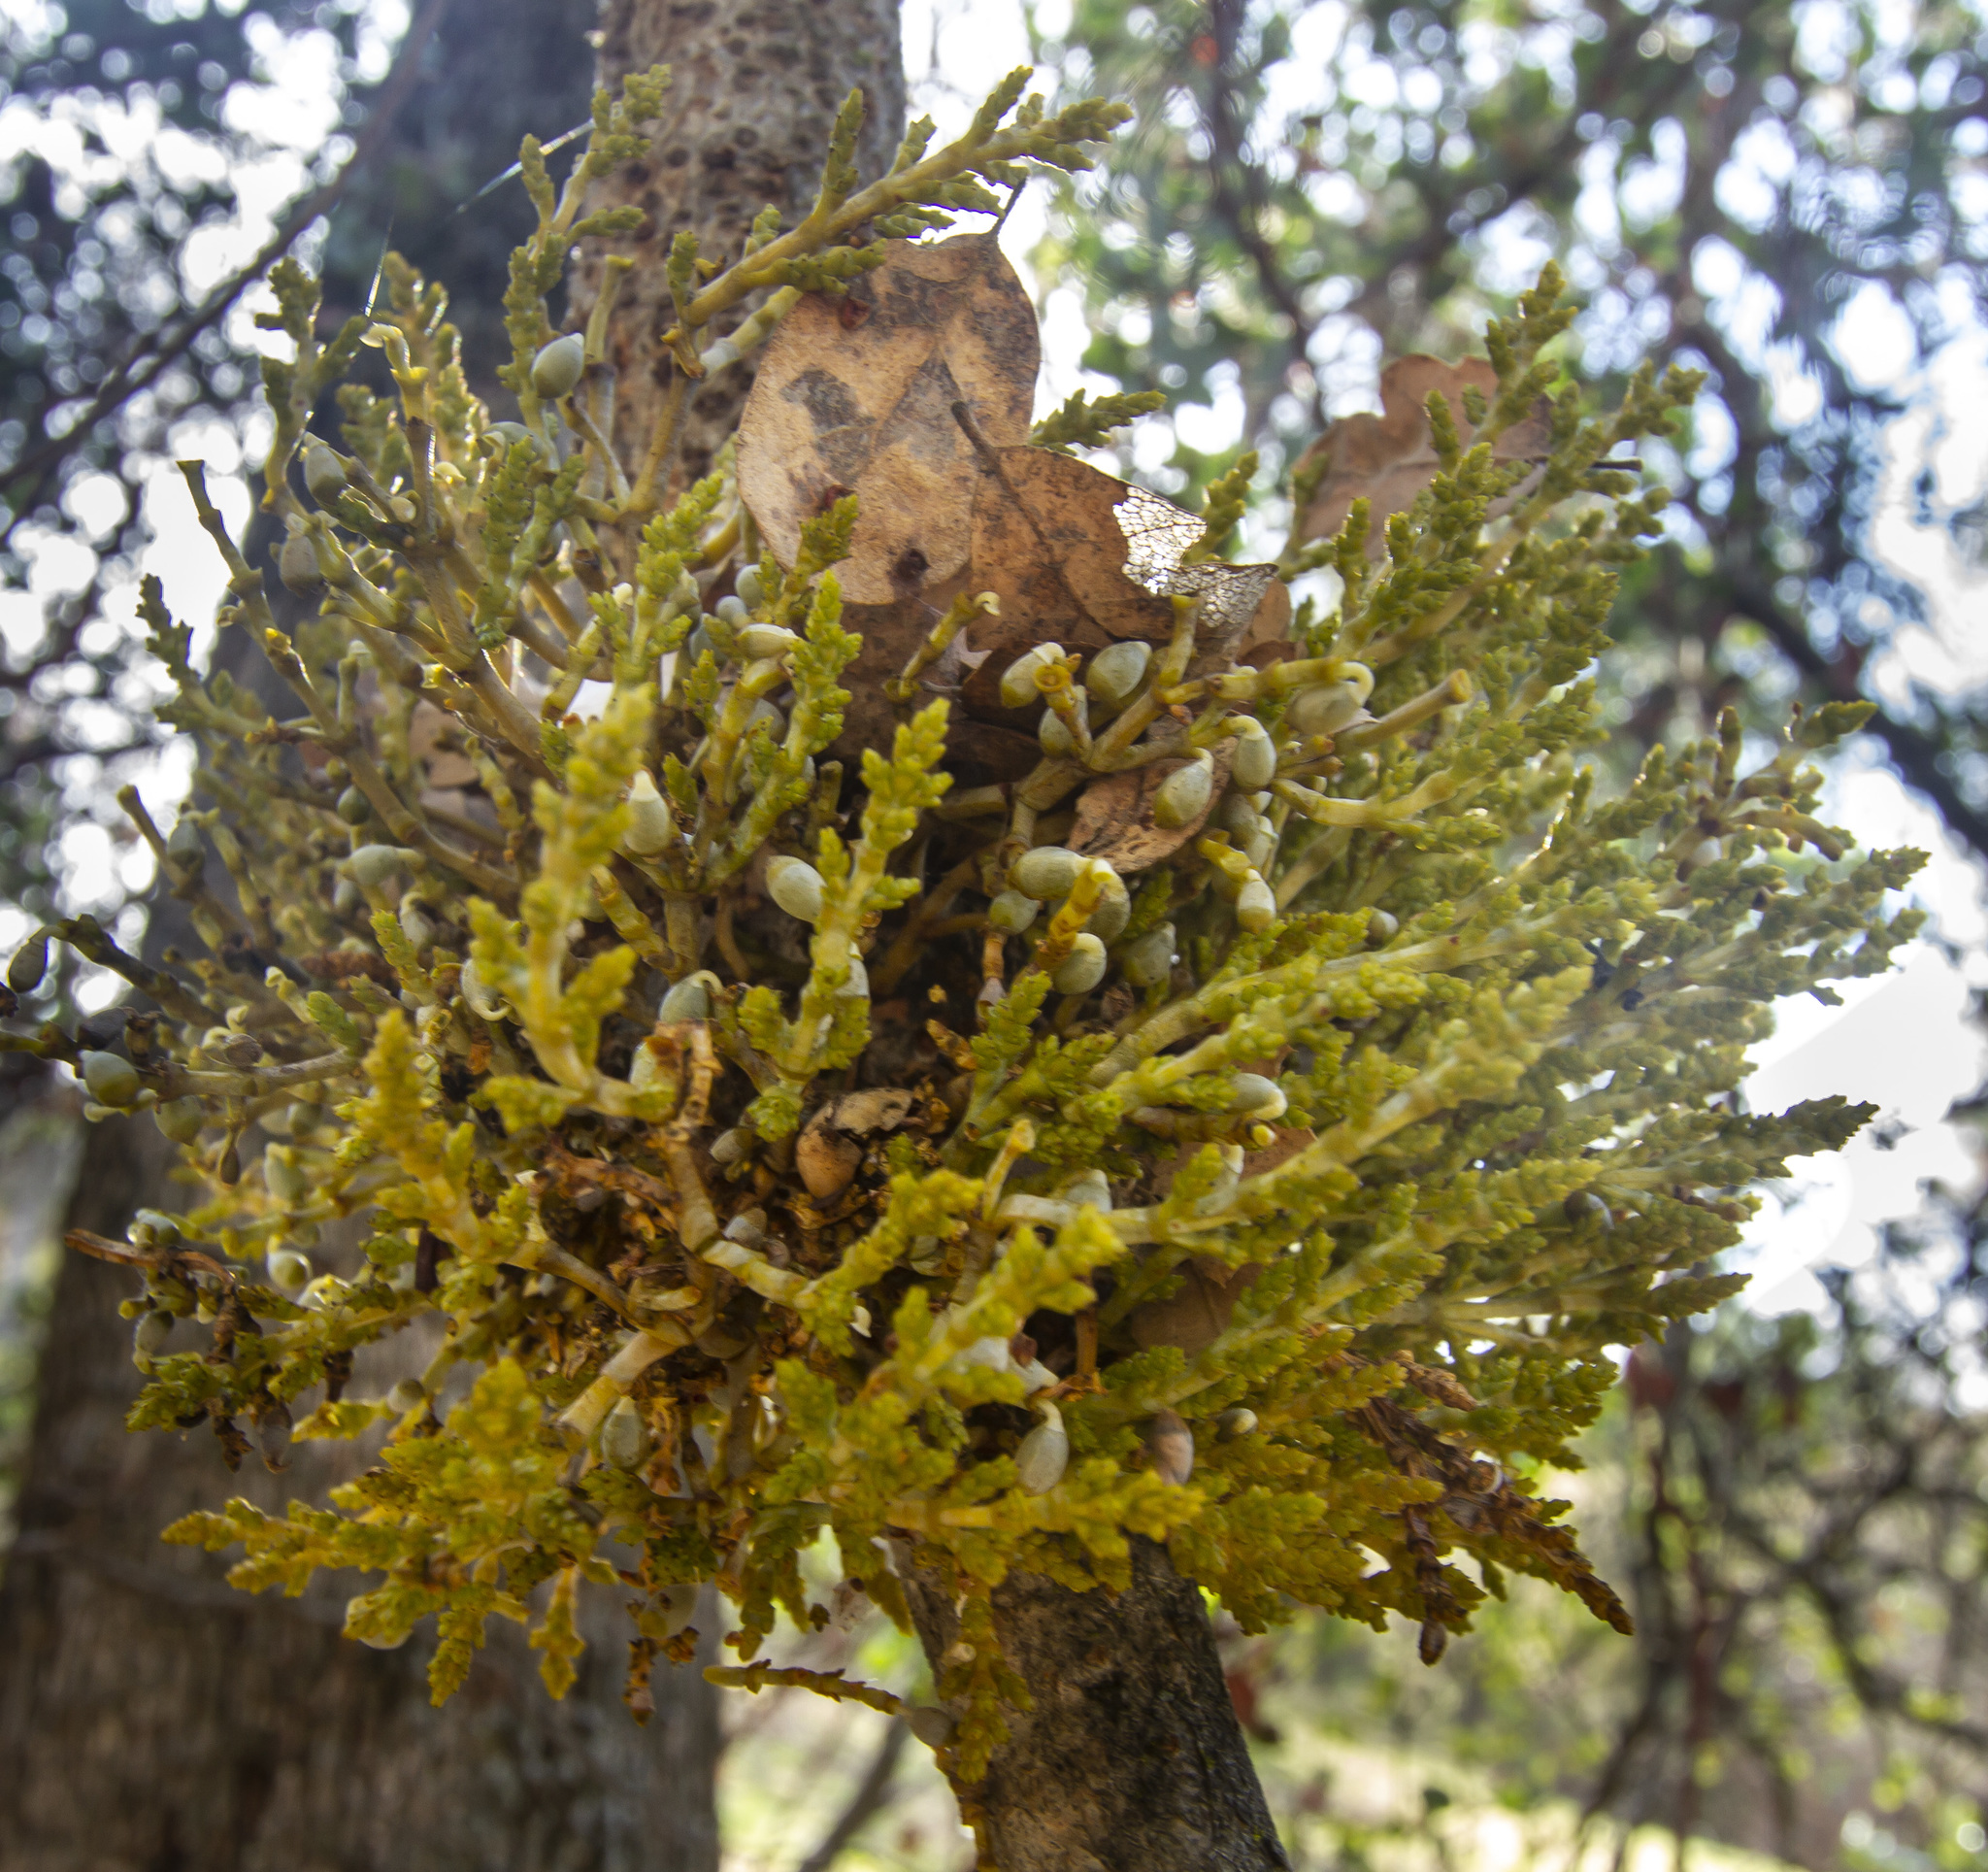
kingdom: Plantae
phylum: Tracheophyta
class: Magnoliopsida
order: Santalales
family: Viscaceae
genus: Arceuthobium
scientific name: Arceuthobium campylopodum
